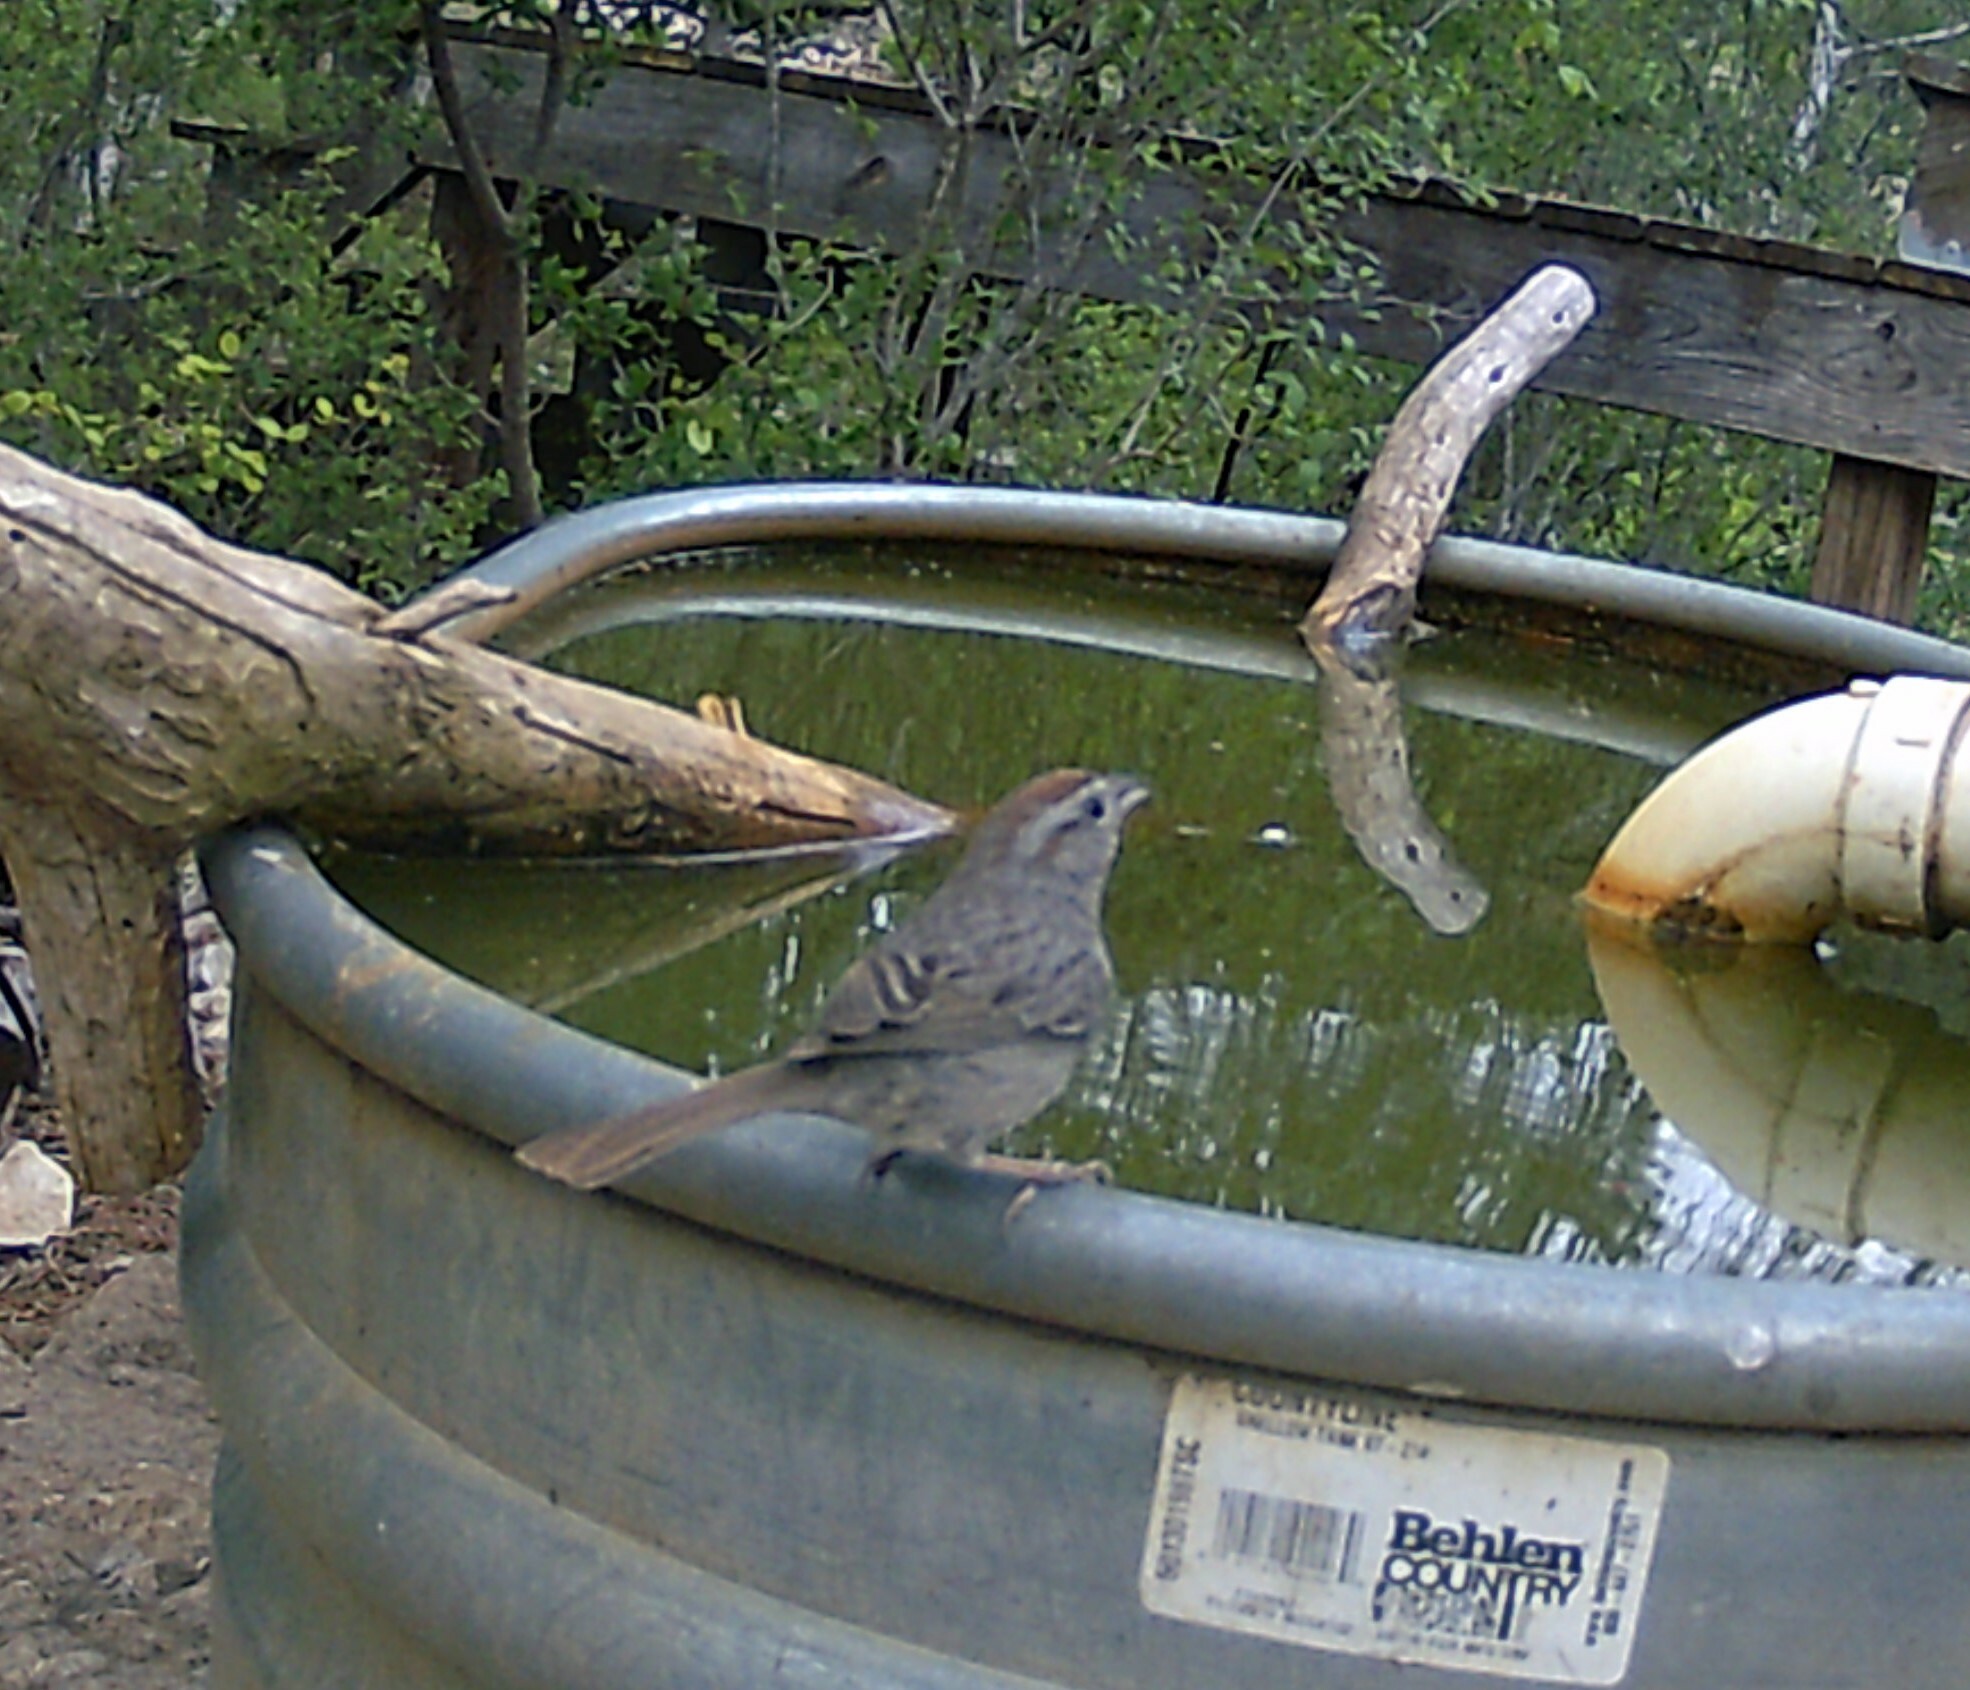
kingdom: Animalia
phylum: Chordata
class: Aves
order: Passeriformes
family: Passerellidae
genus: Aimophila
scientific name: Aimophila ruficeps
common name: Rufous-crowned sparrow
